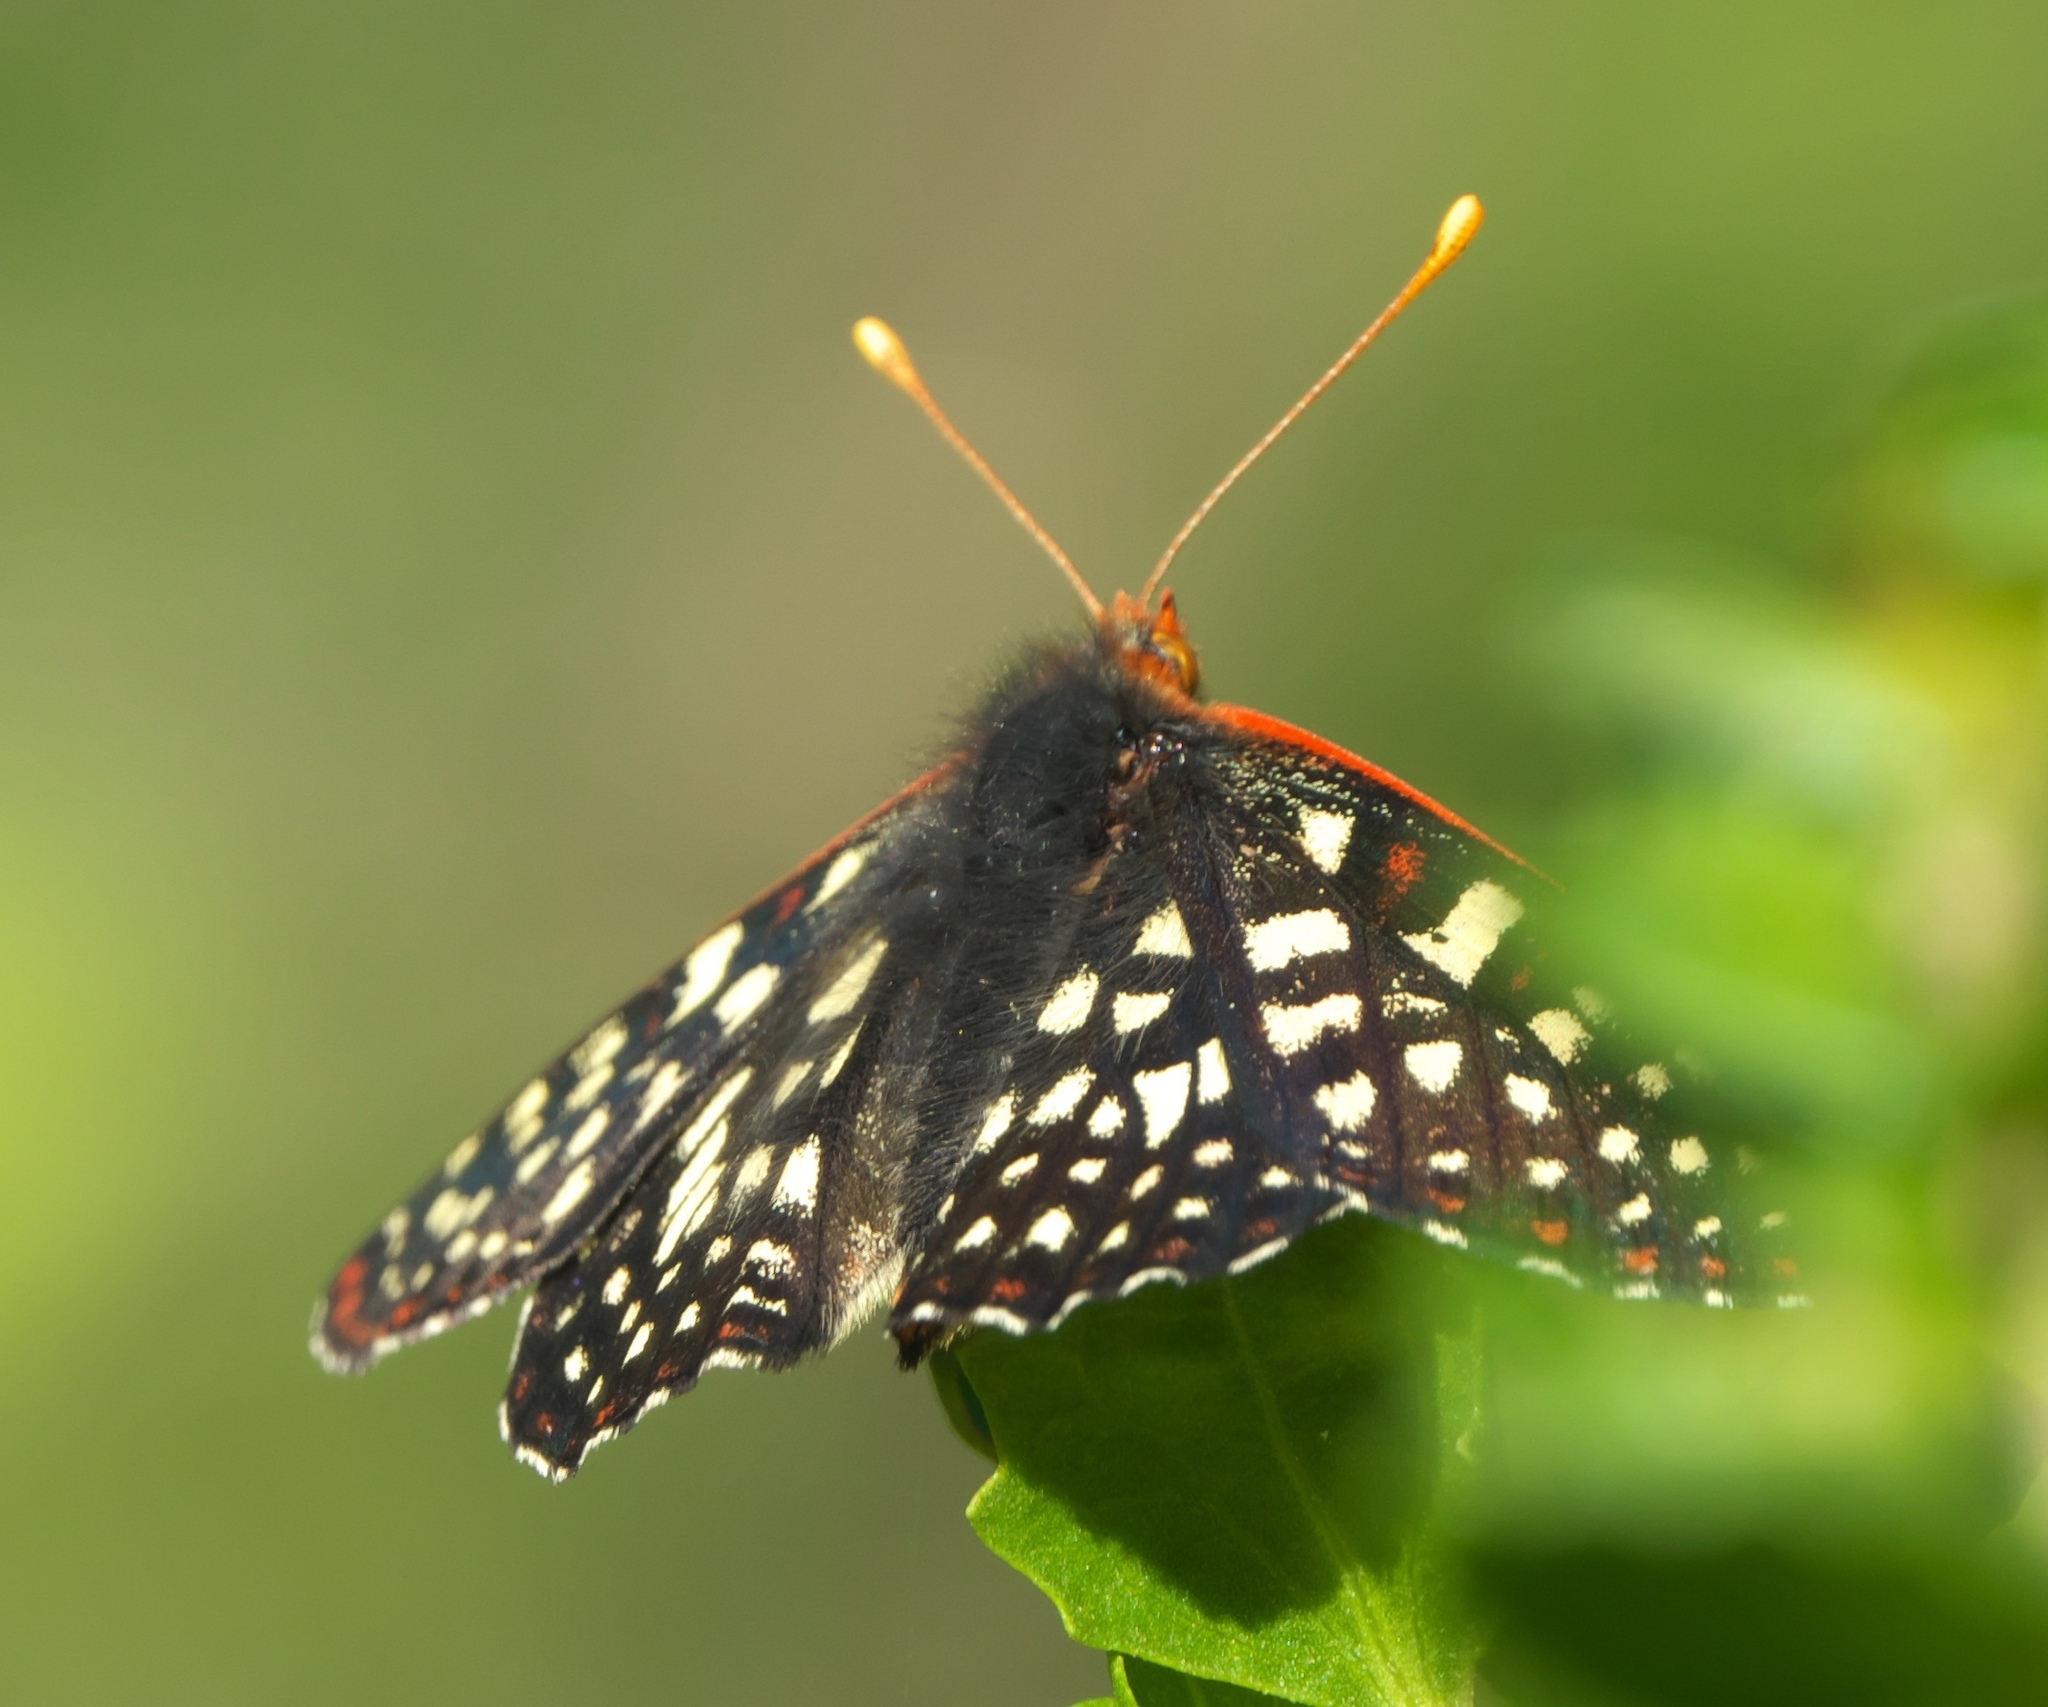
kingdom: Animalia
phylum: Arthropoda
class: Insecta
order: Lepidoptera
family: Nymphalidae
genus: Occidryas
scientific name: Occidryas chalcedona
